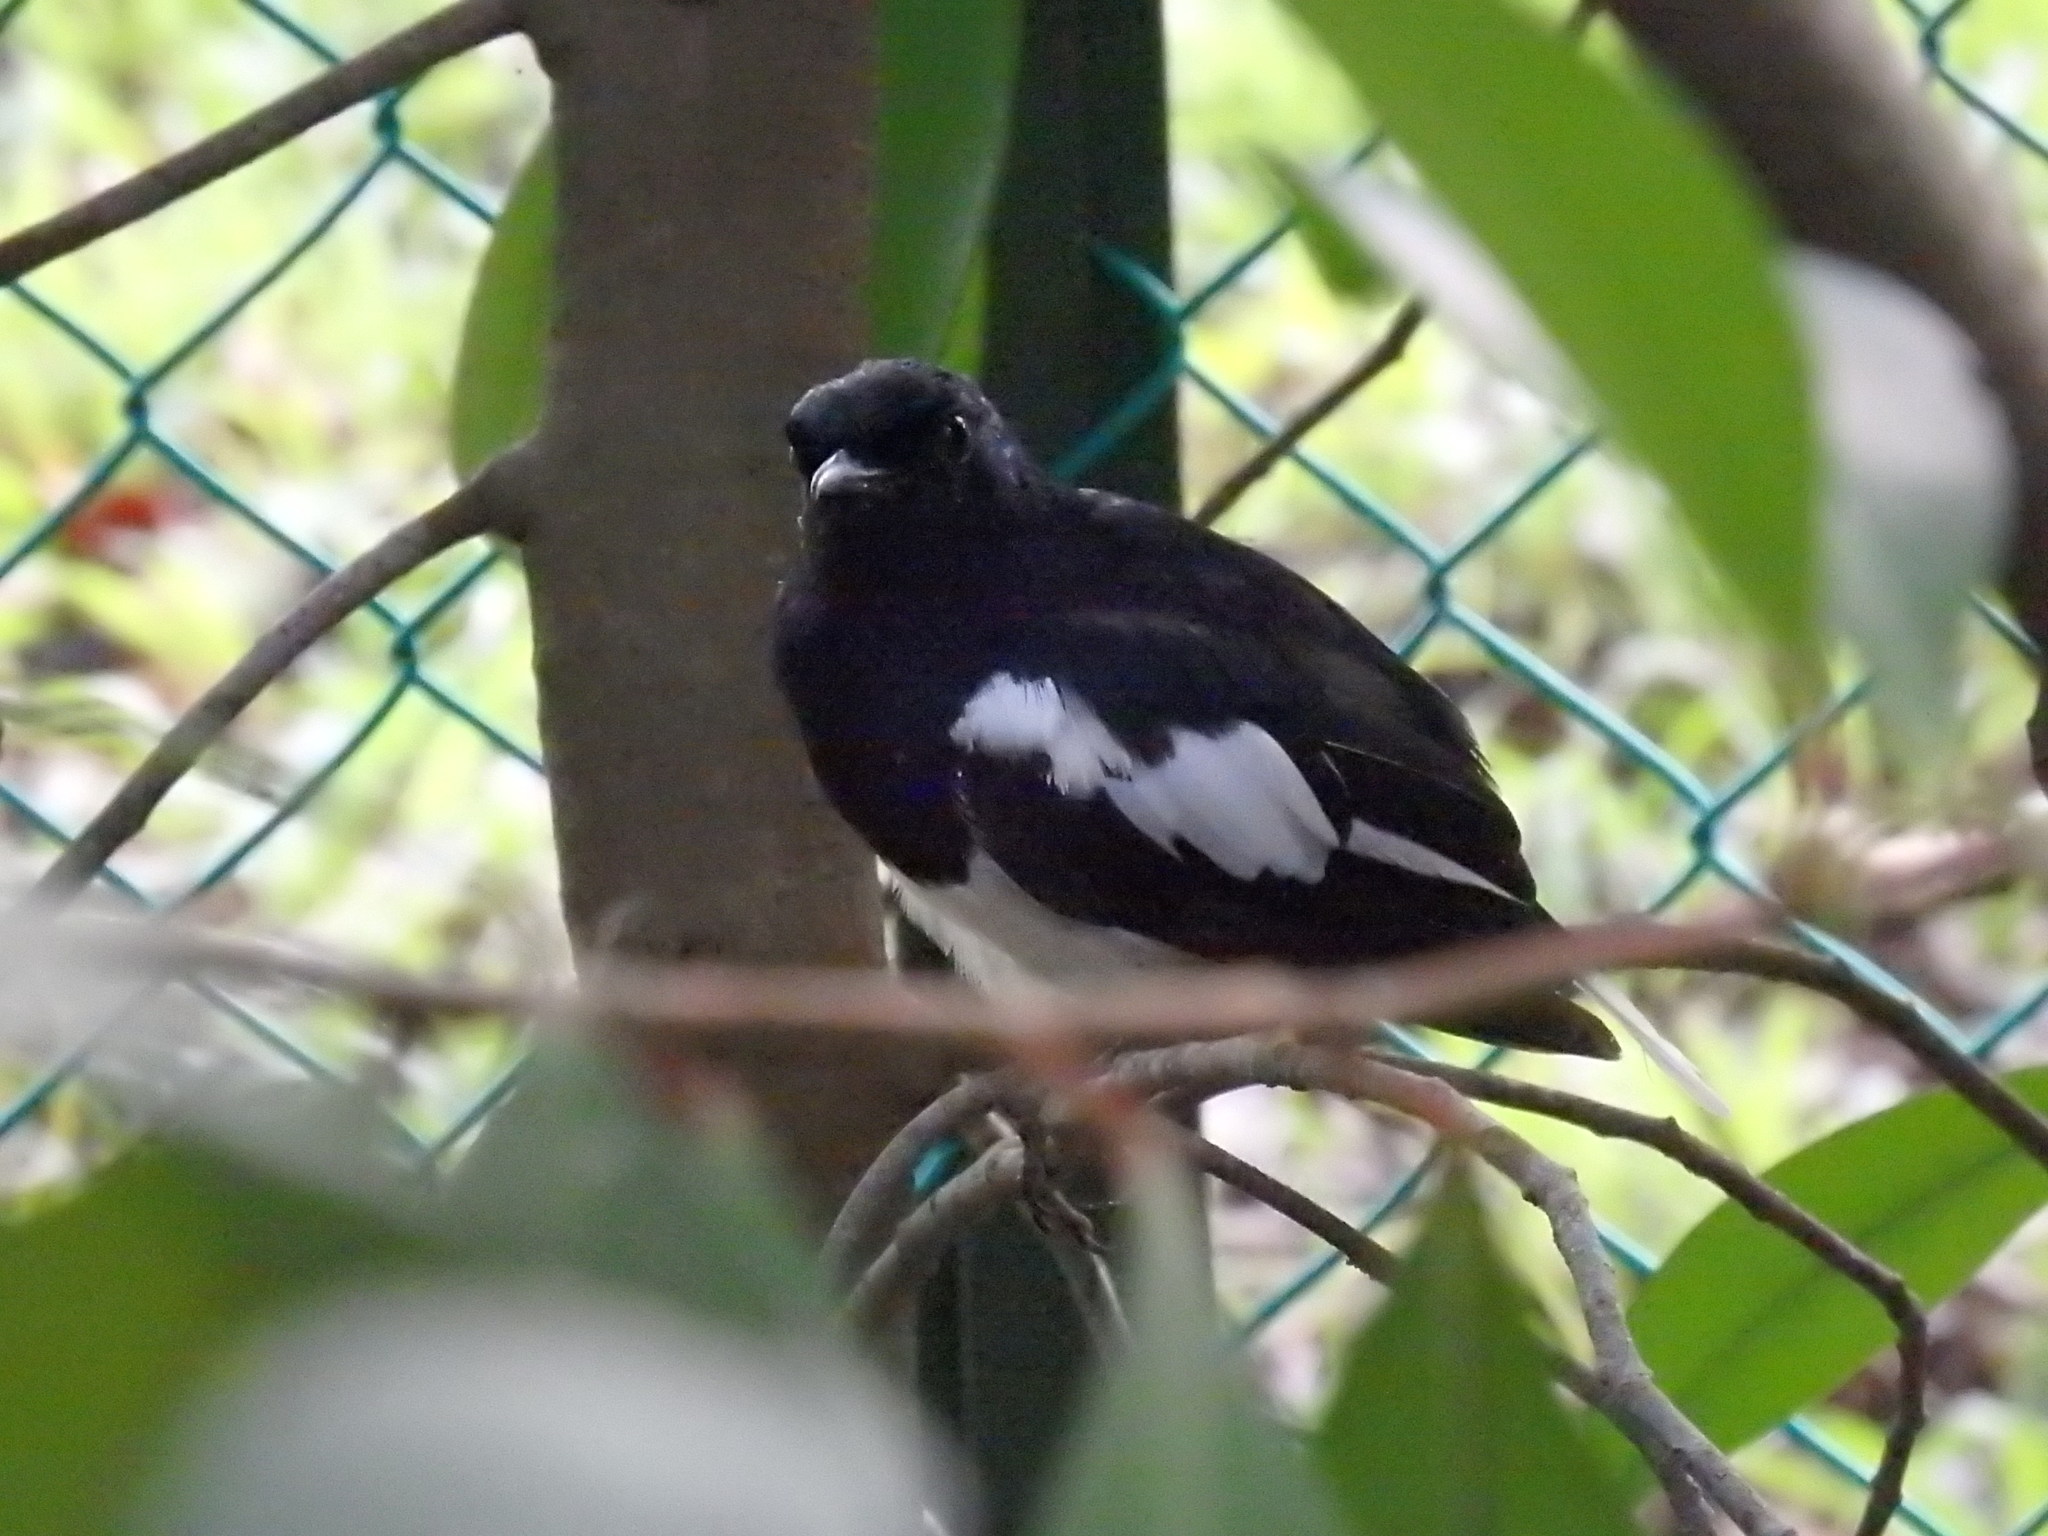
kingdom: Animalia
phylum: Chordata
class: Aves
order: Passeriformes
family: Muscicapidae
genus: Copsychus
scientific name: Copsychus saularis
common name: Oriental magpie-robin
